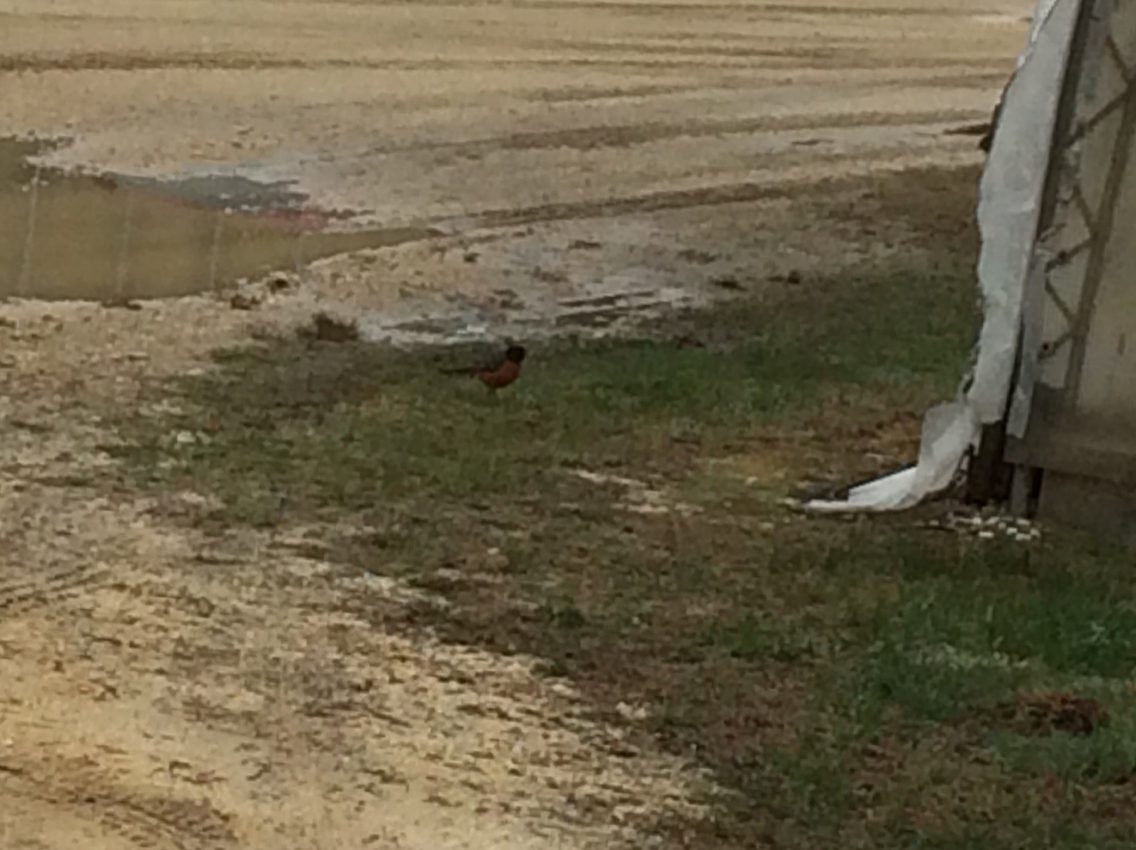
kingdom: Animalia
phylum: Chordata
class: Aves
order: Passeriformes
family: Turdidae
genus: Turdus
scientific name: Turdus migratorius
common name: American robin
